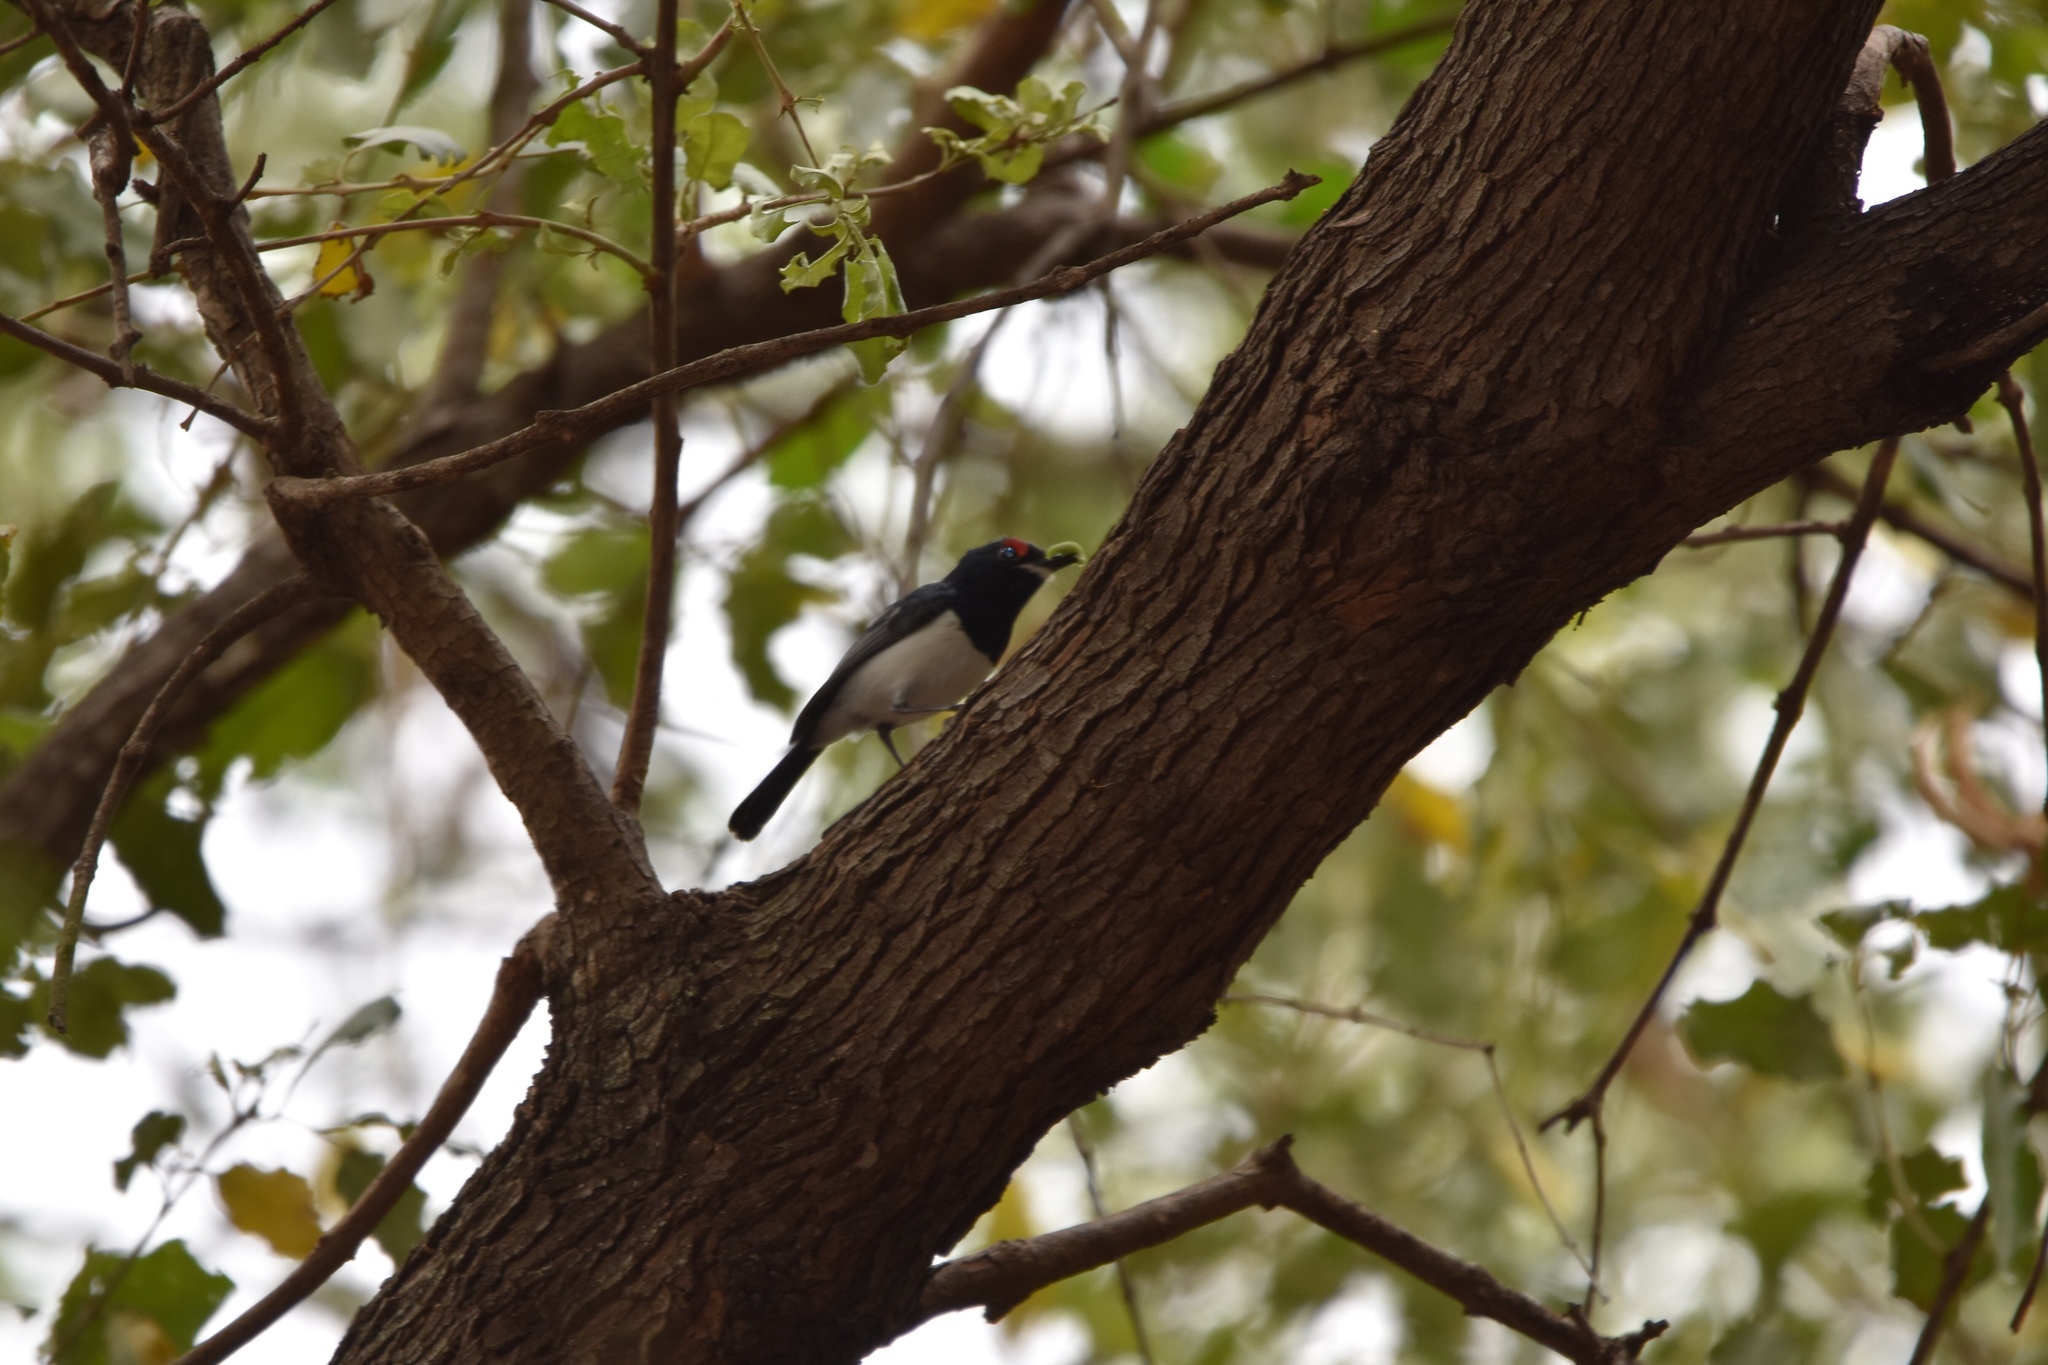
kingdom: Animalia
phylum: Chordata
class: Aves
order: Passeriformes
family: Platysteiridae
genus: Platysteira
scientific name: Platysteira peltata
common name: Black-throated wattle-eye
